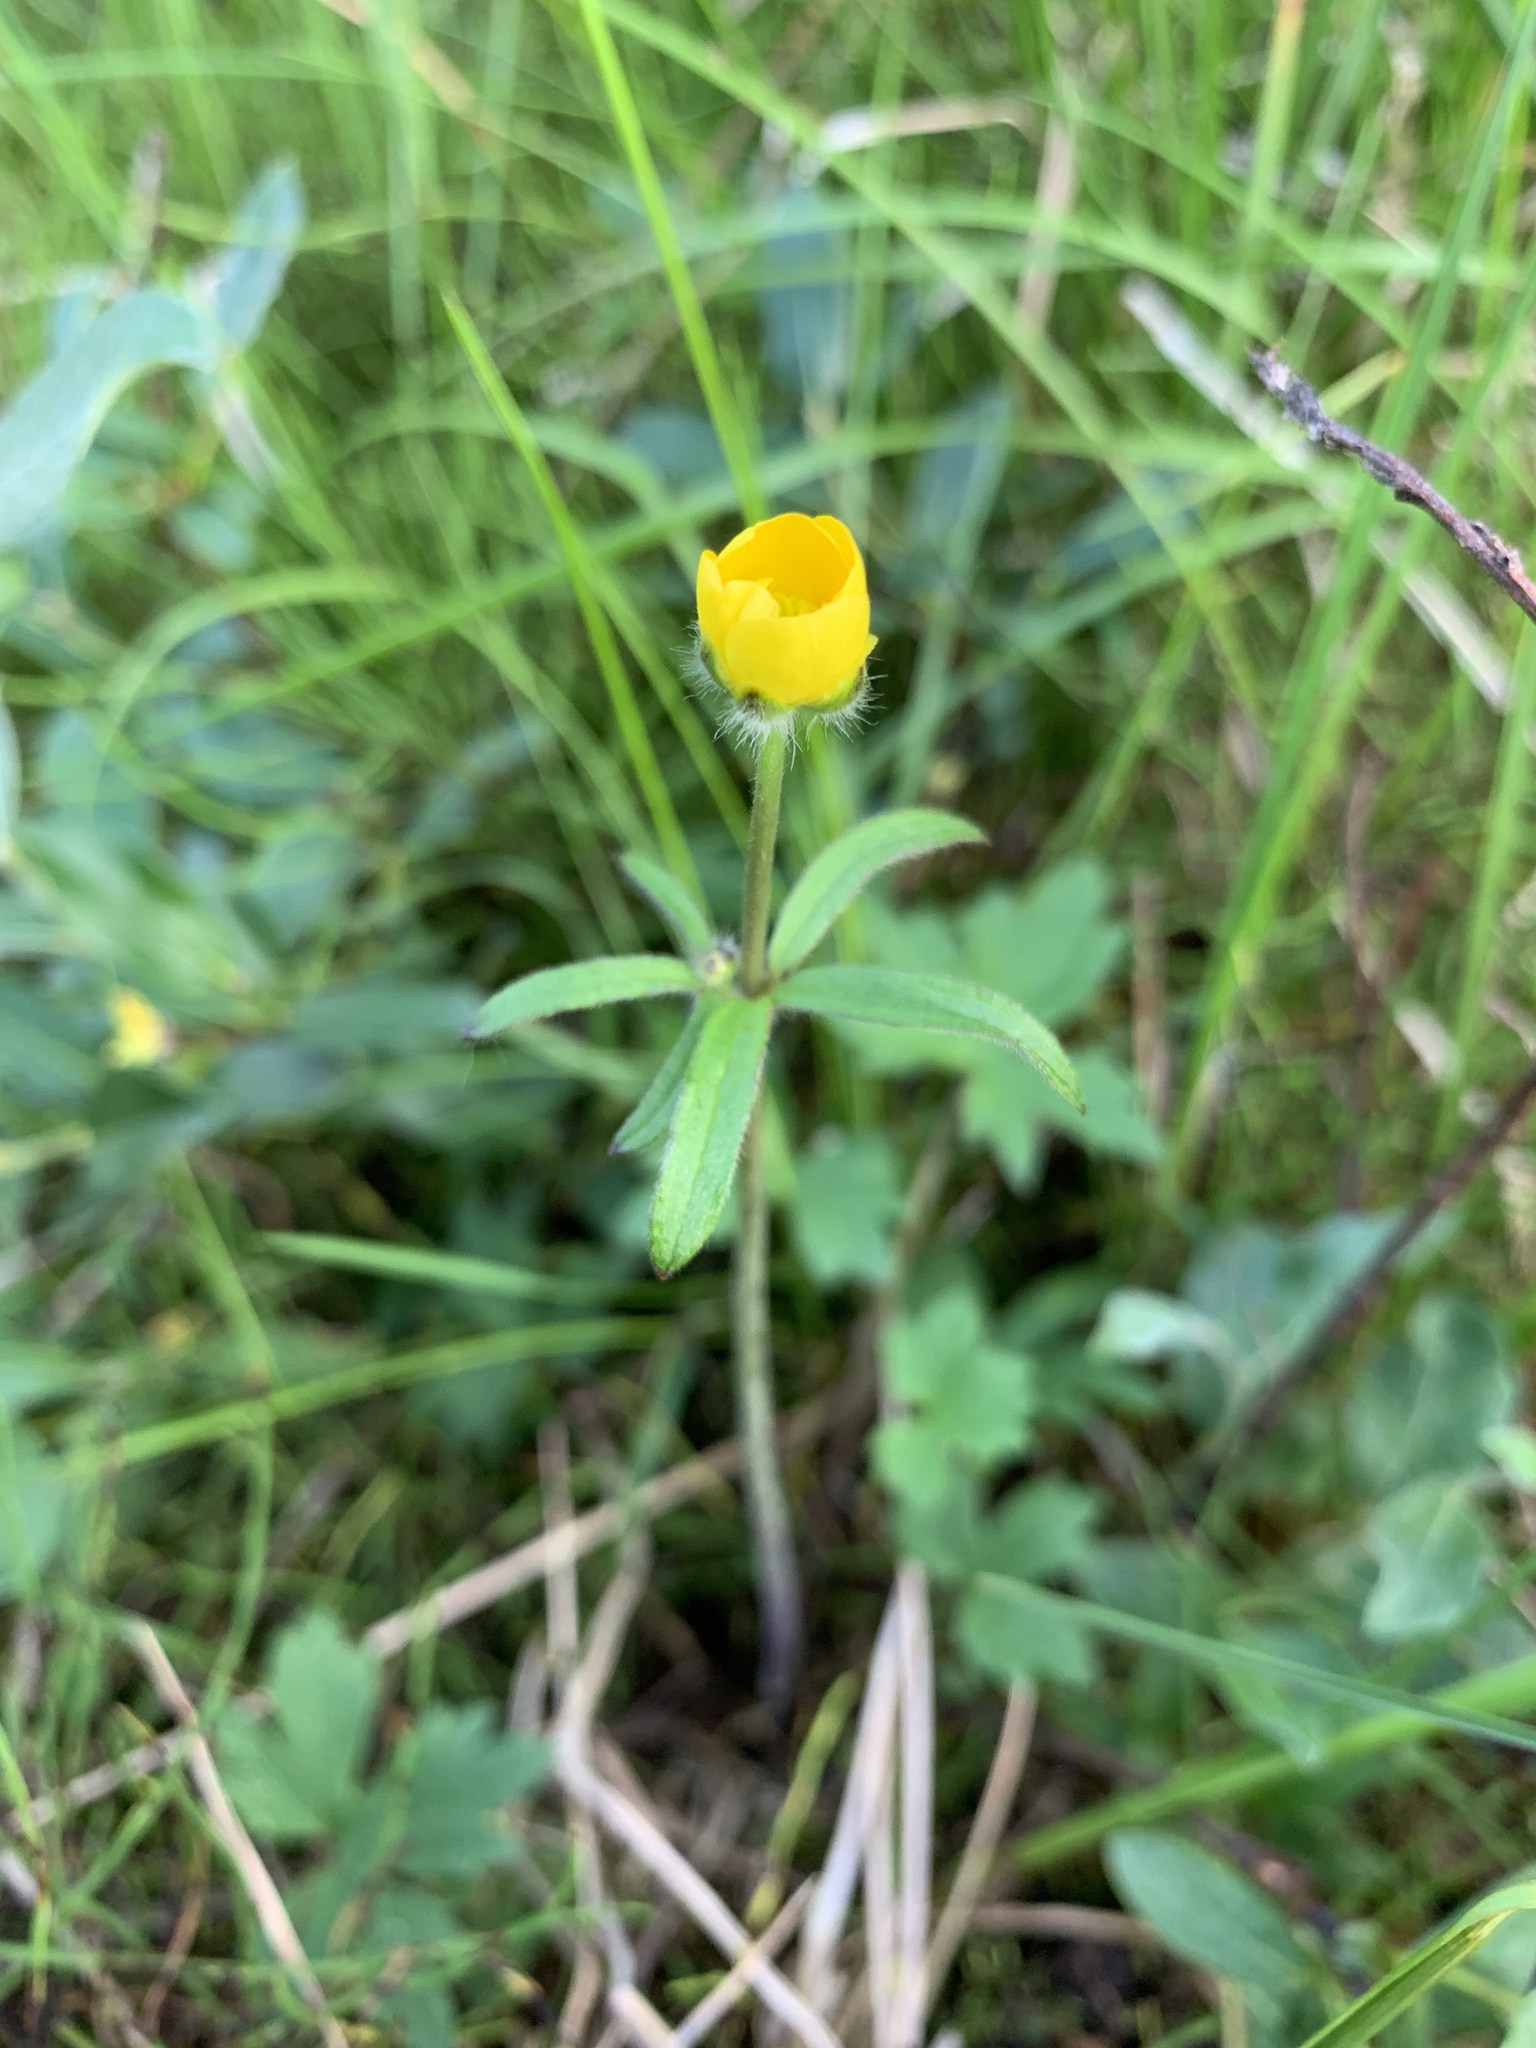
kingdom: Plantae
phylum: Tracheophyta
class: Magnoliopsida
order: Ranunculales
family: Ranunculaceae
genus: Ranunculus
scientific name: Ranunculus propinquus
